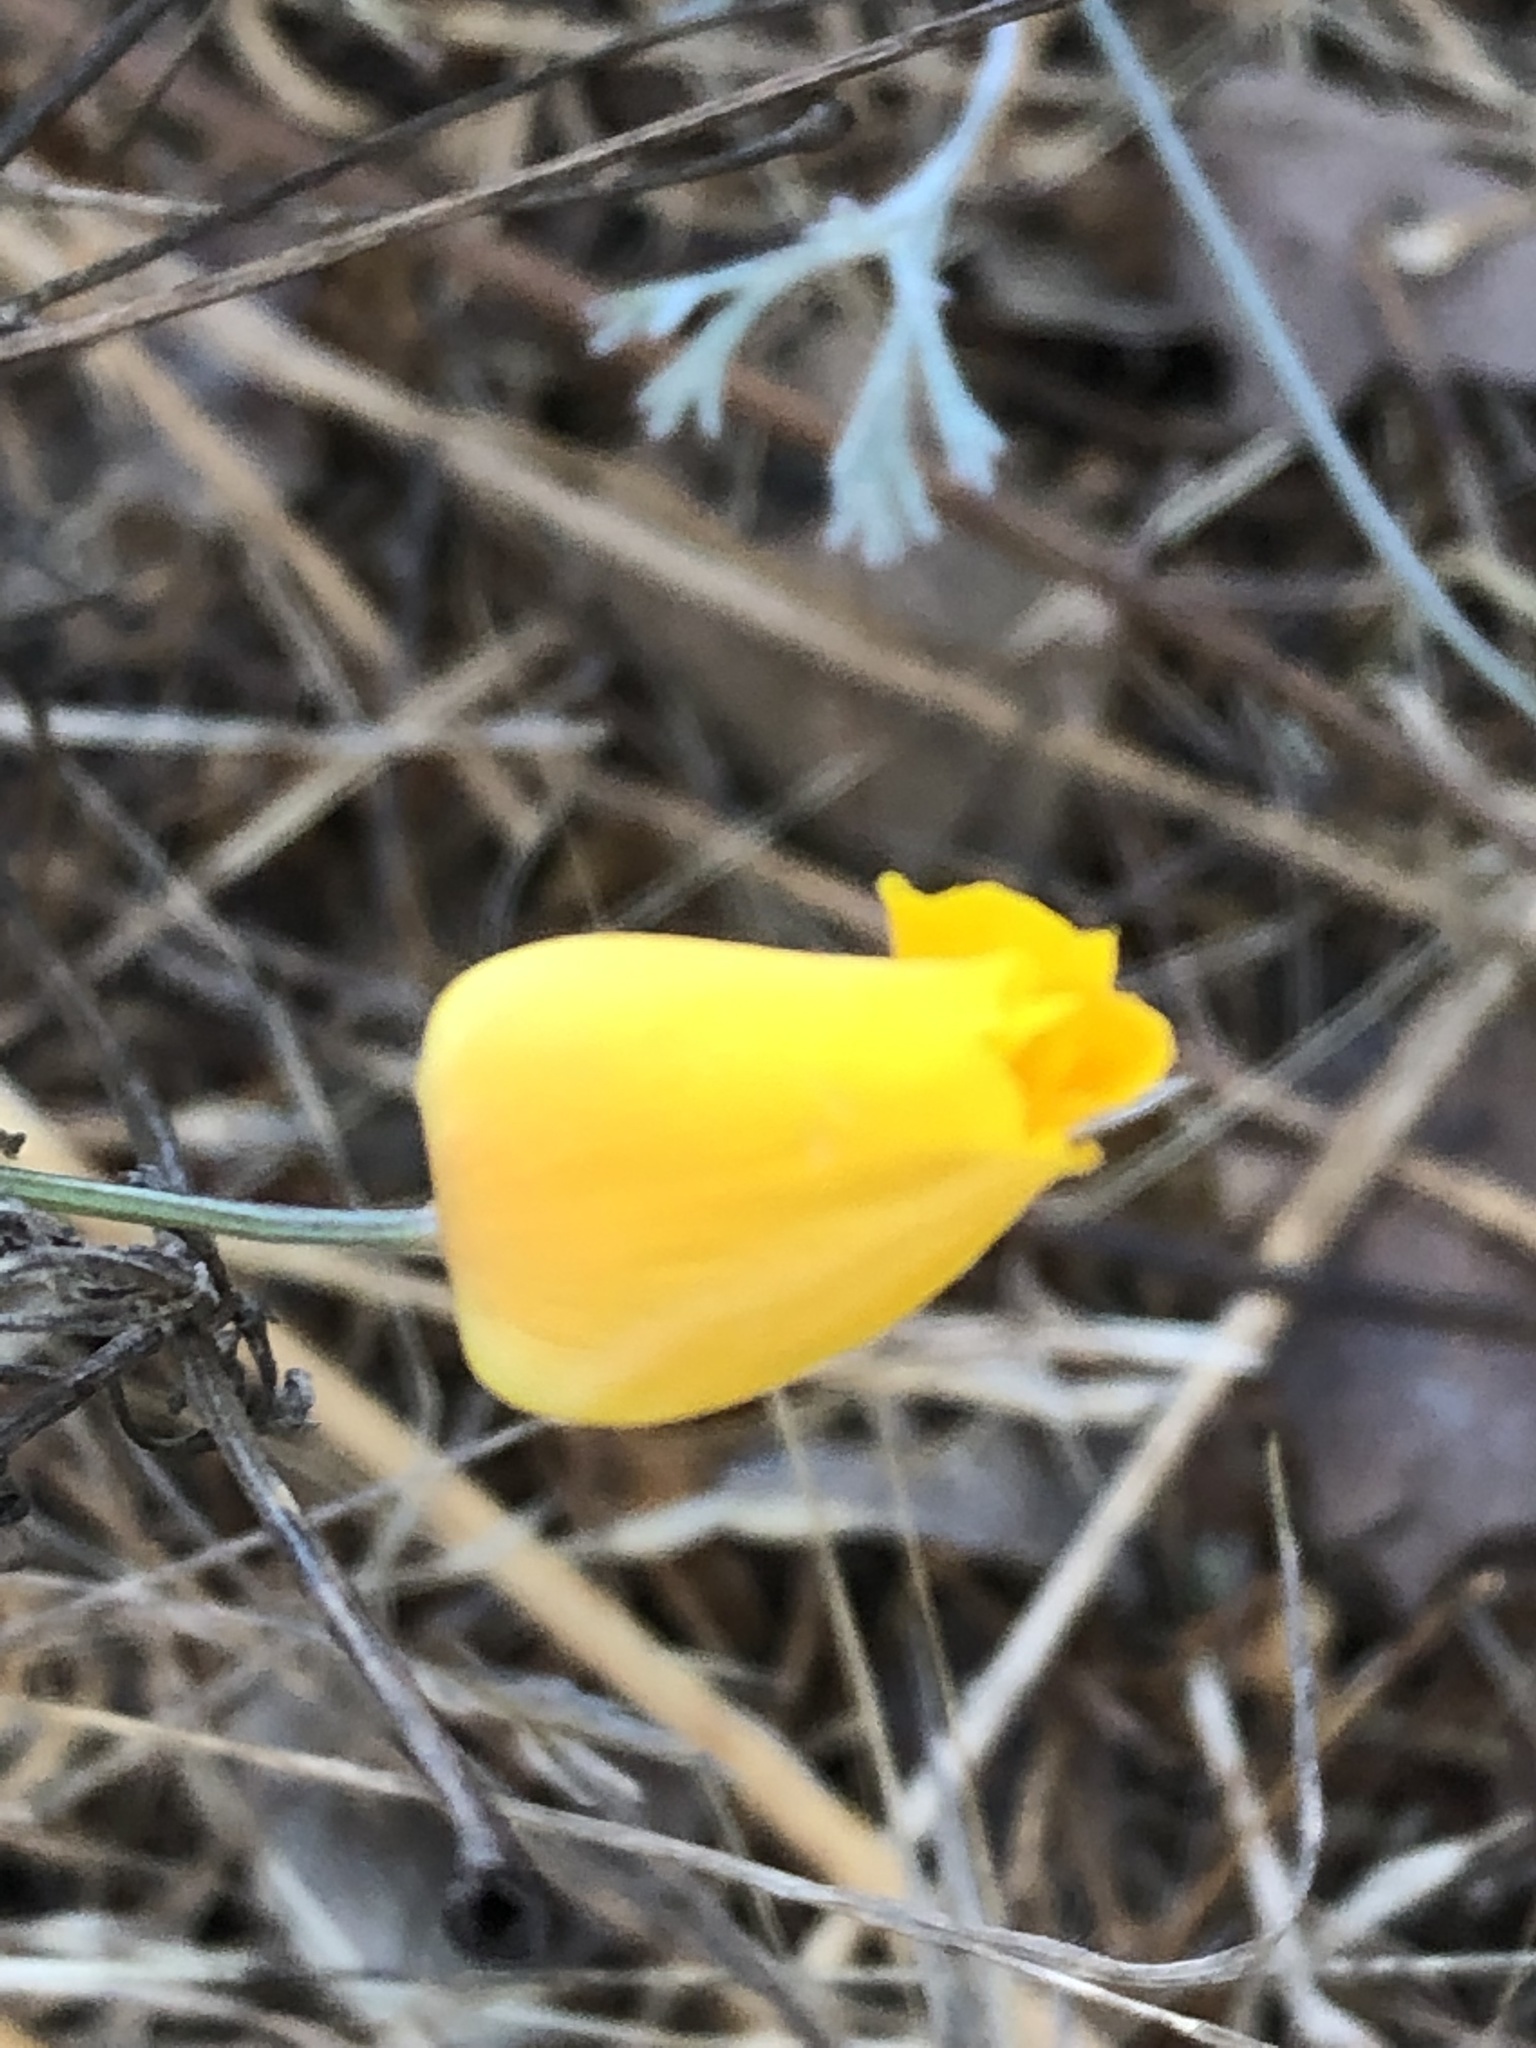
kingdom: Plantae
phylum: Tracheophyta
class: Magnoliopsida
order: Ranunculales
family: Papaveraceae
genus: Eschscholzia
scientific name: Eschscholzia californica
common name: California poppy
